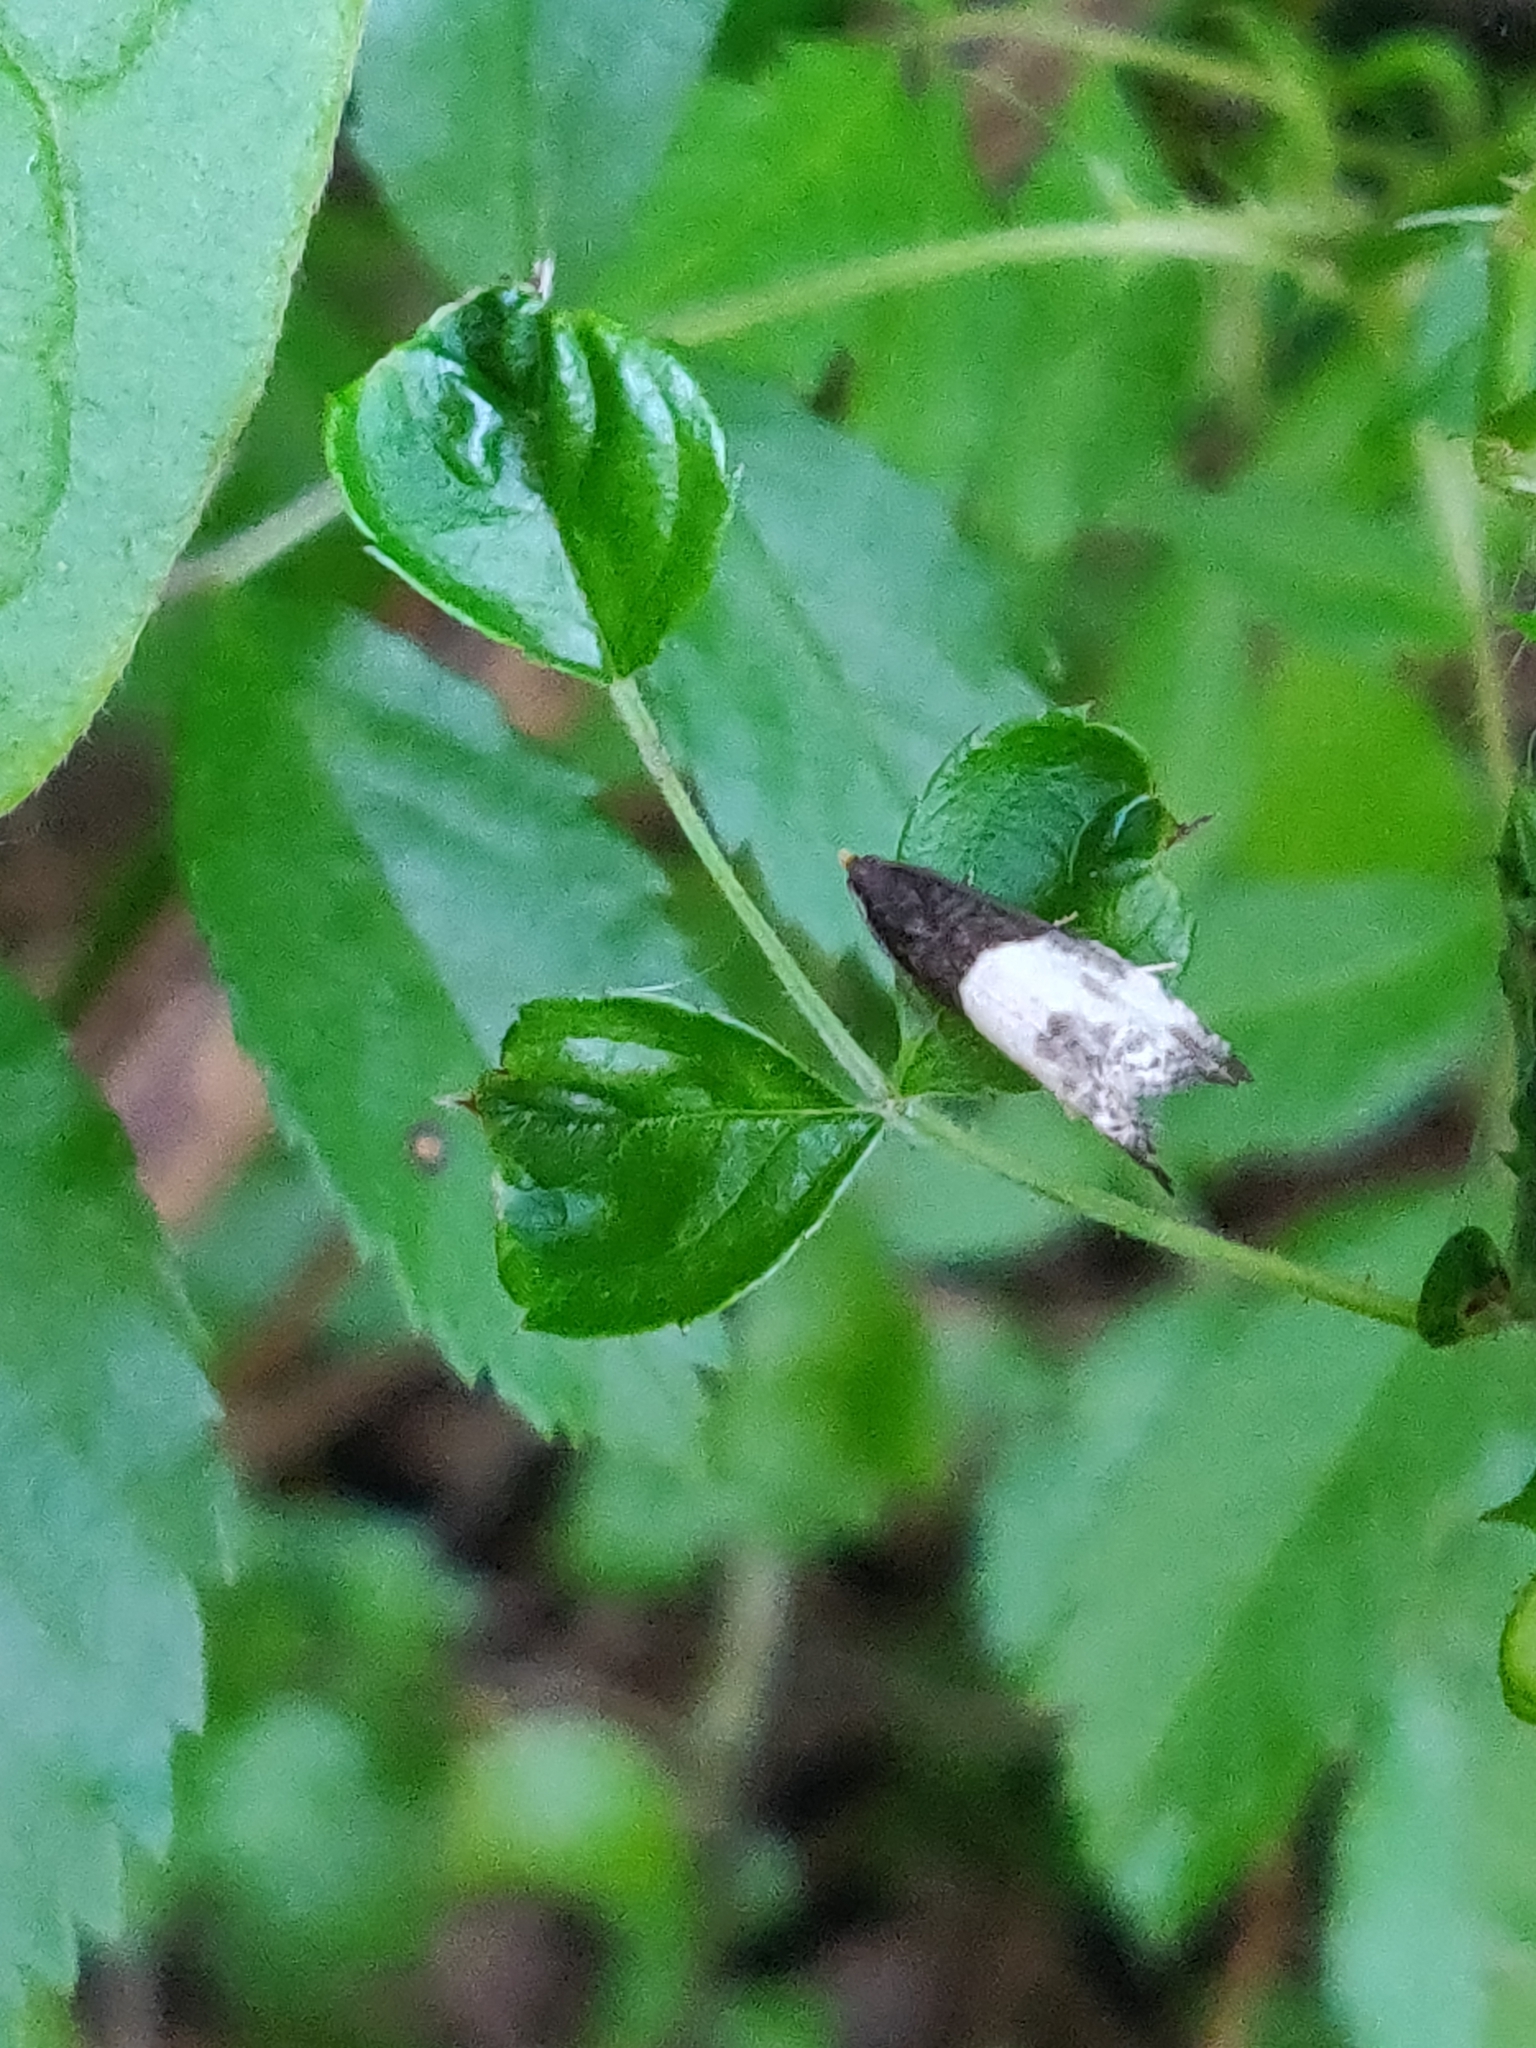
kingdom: Animalia
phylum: Arthropoda
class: Insecta
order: Lepidoptera
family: Tortricidae
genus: Notocelia
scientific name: Notocelia cynosbatella
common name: Yellow-faced bell moth
